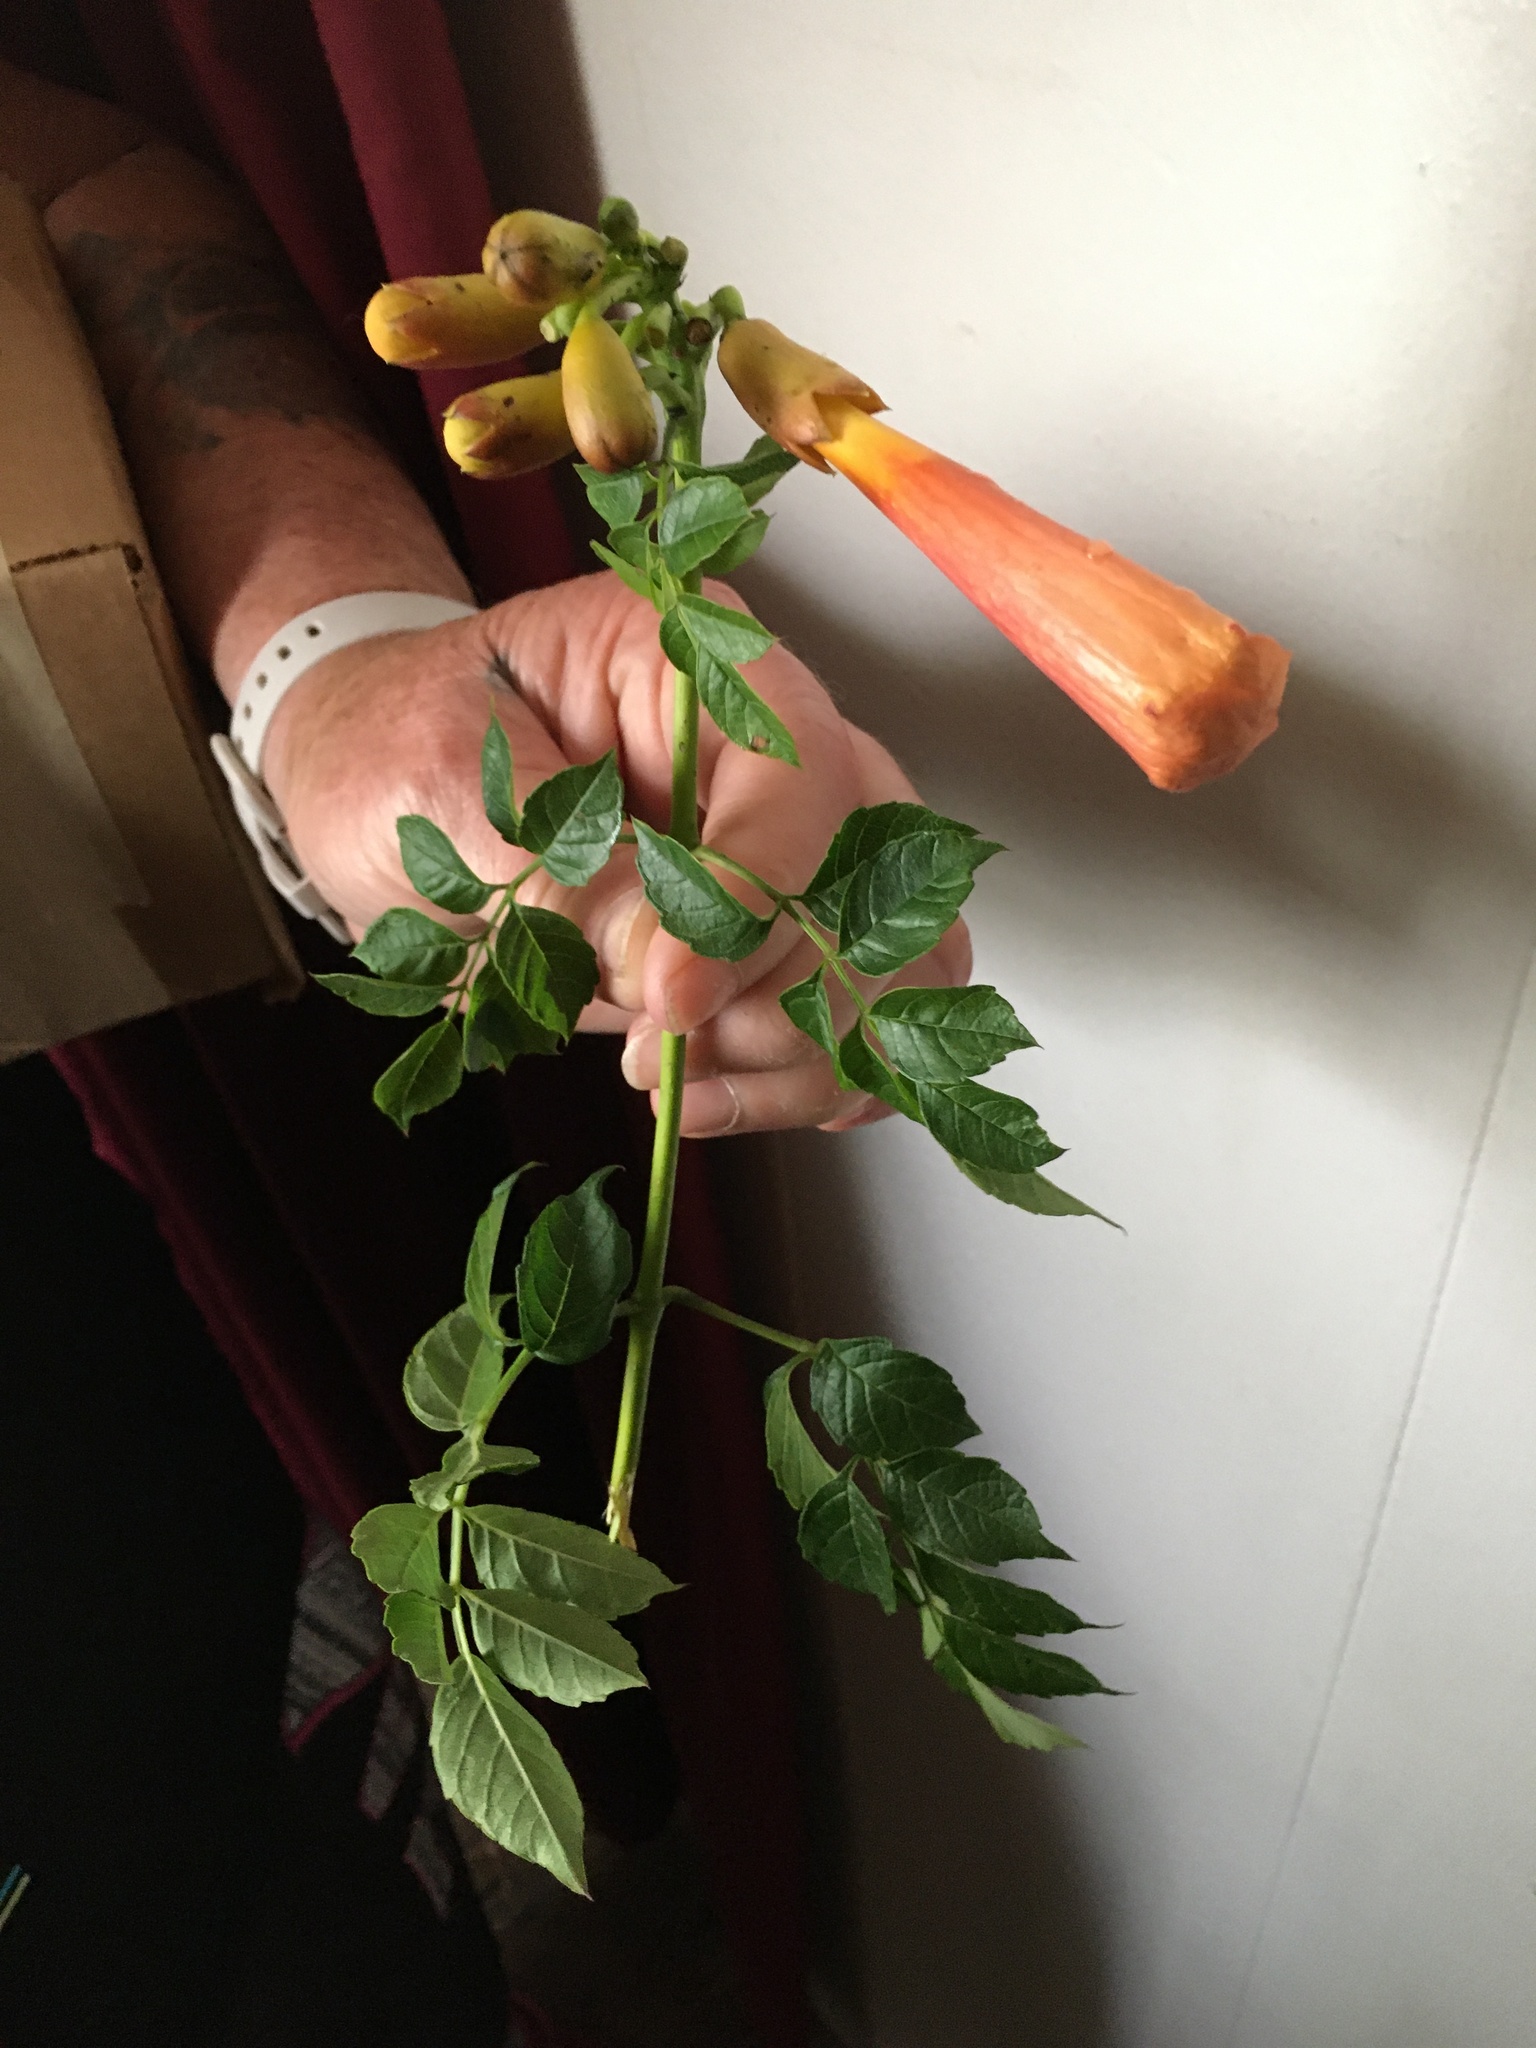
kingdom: Plantae
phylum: Tracheophyta
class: Magnoliopsida
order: Lamiales
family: Bignoniaceae
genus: Campsis
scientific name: Campsis radicans
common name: Trumpet-creeper
